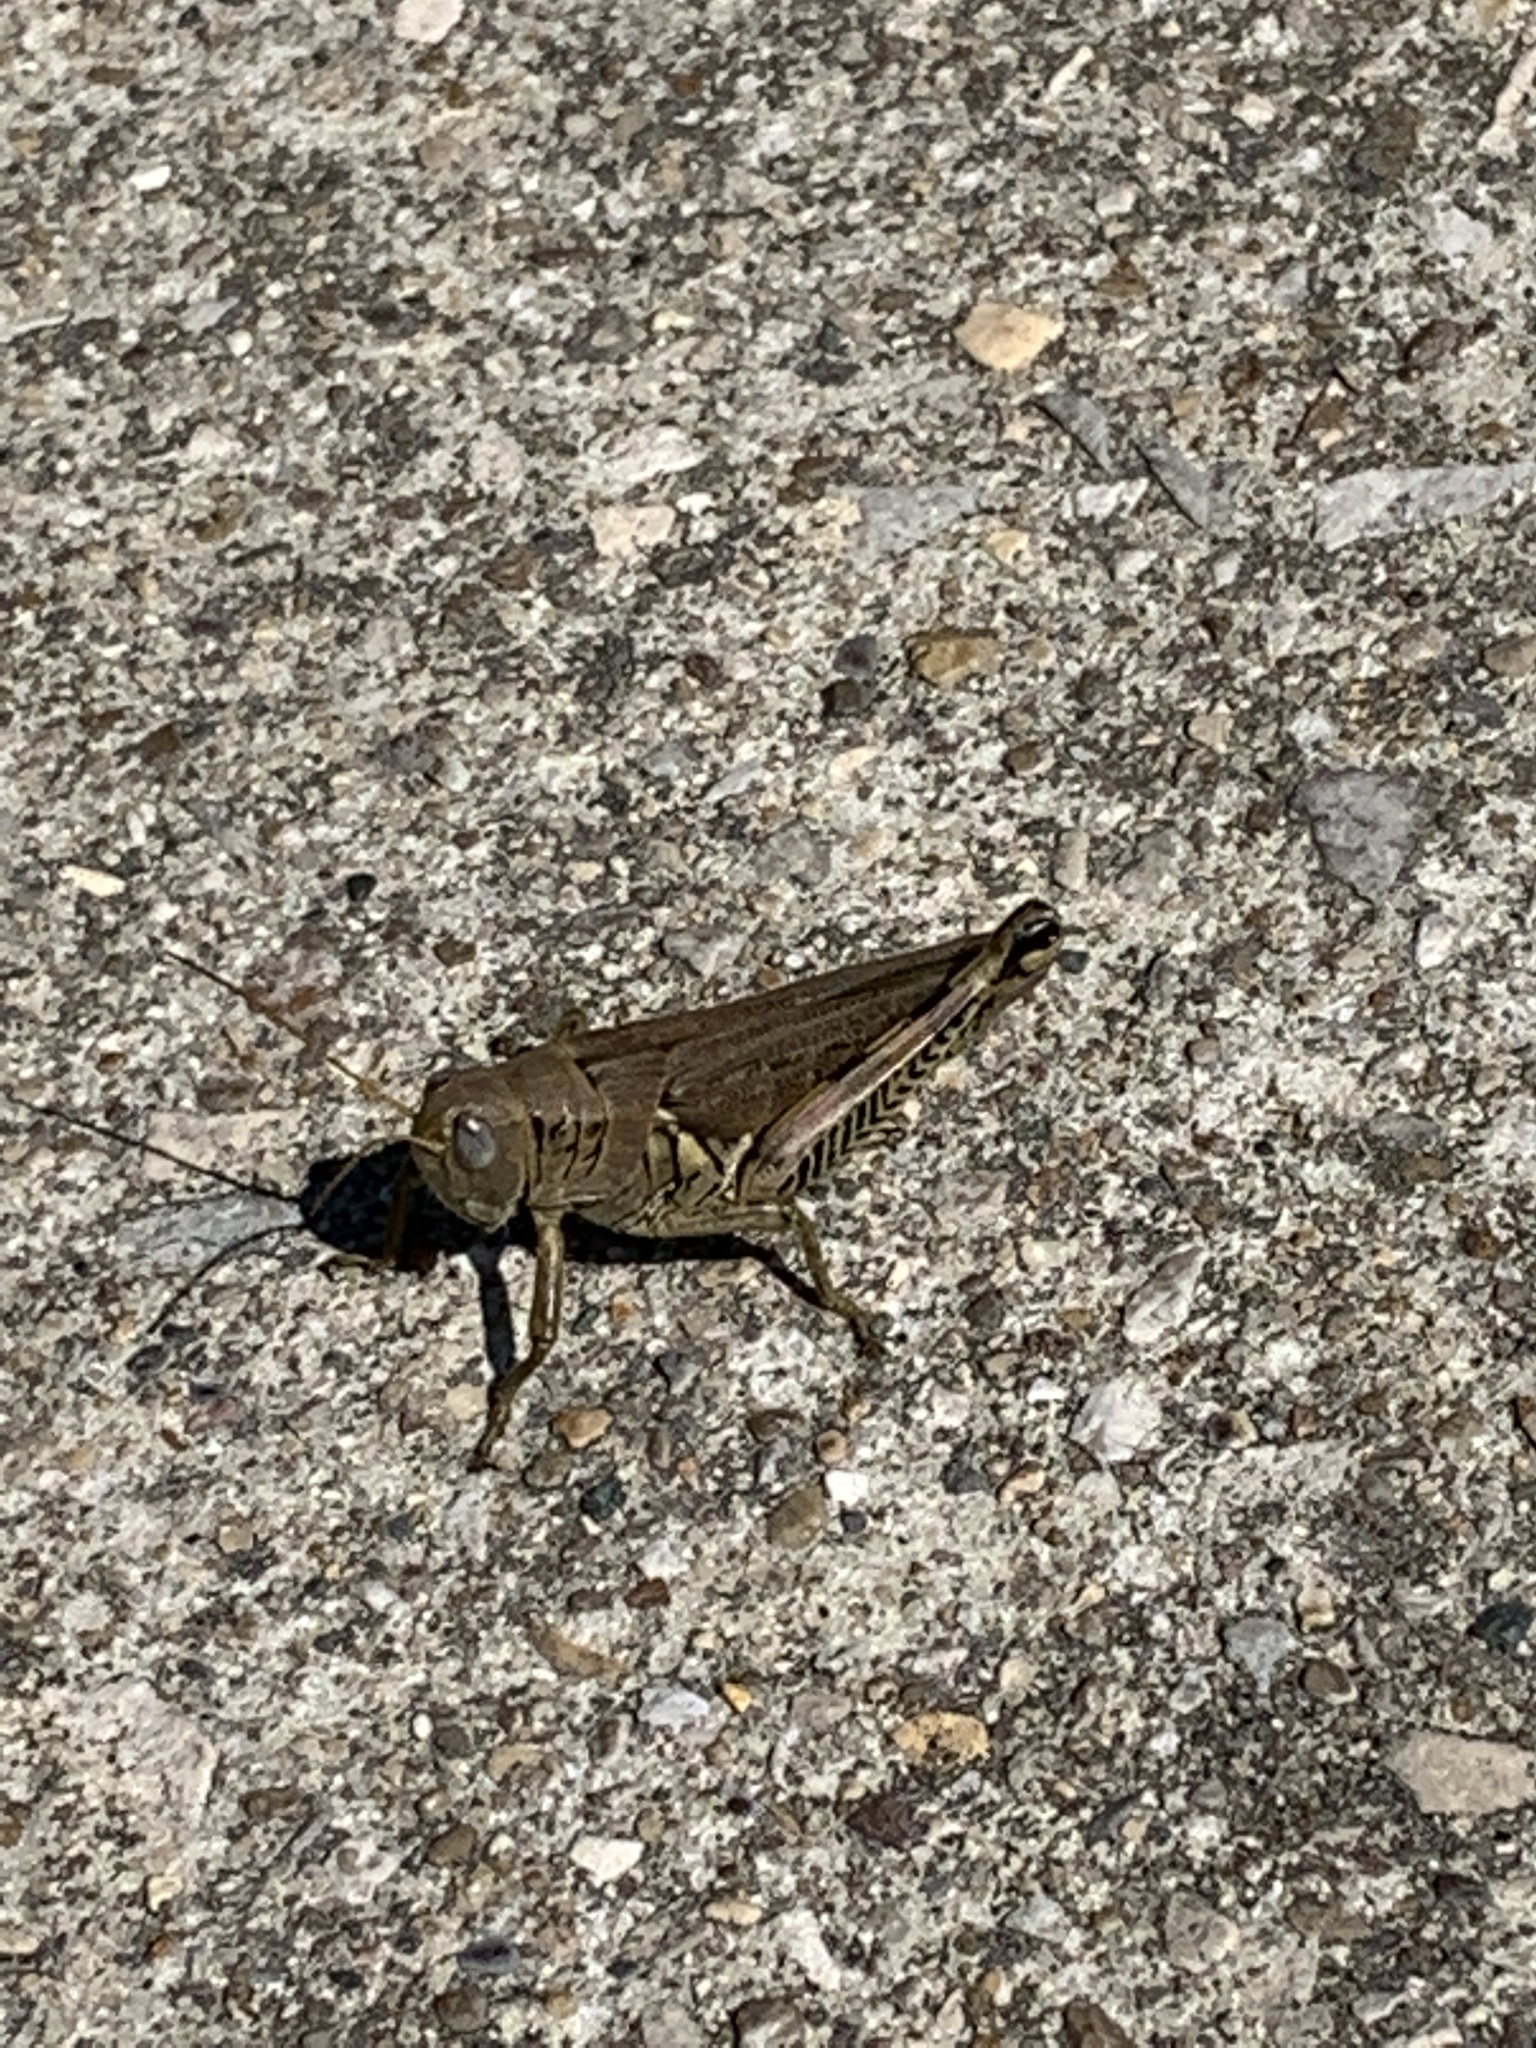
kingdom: Animalia
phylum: Arthropoda
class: Insecta
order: Orthoptera
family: Acrididae
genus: Melanoplus
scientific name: Melanoplus differentialis
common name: Differential grasshopper
